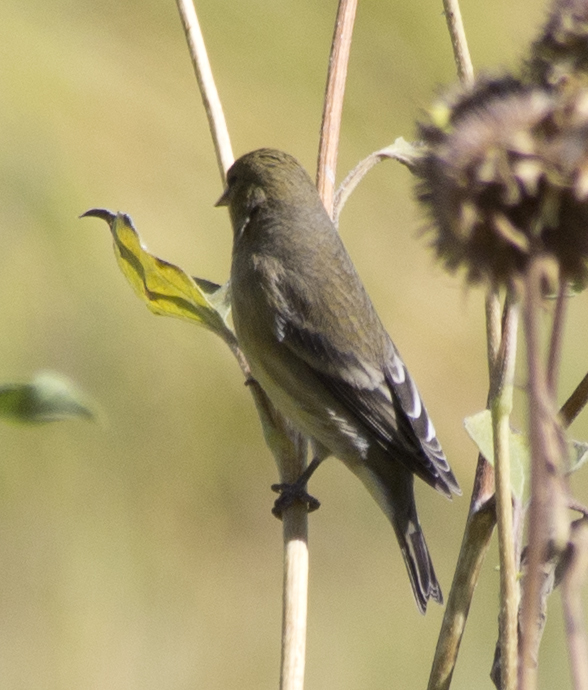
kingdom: Animalia
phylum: Chordata
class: Aves
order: Passeriformes
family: Fringillidae
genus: Spinus
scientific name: Spinus psaltria
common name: Lesser goldfinch
